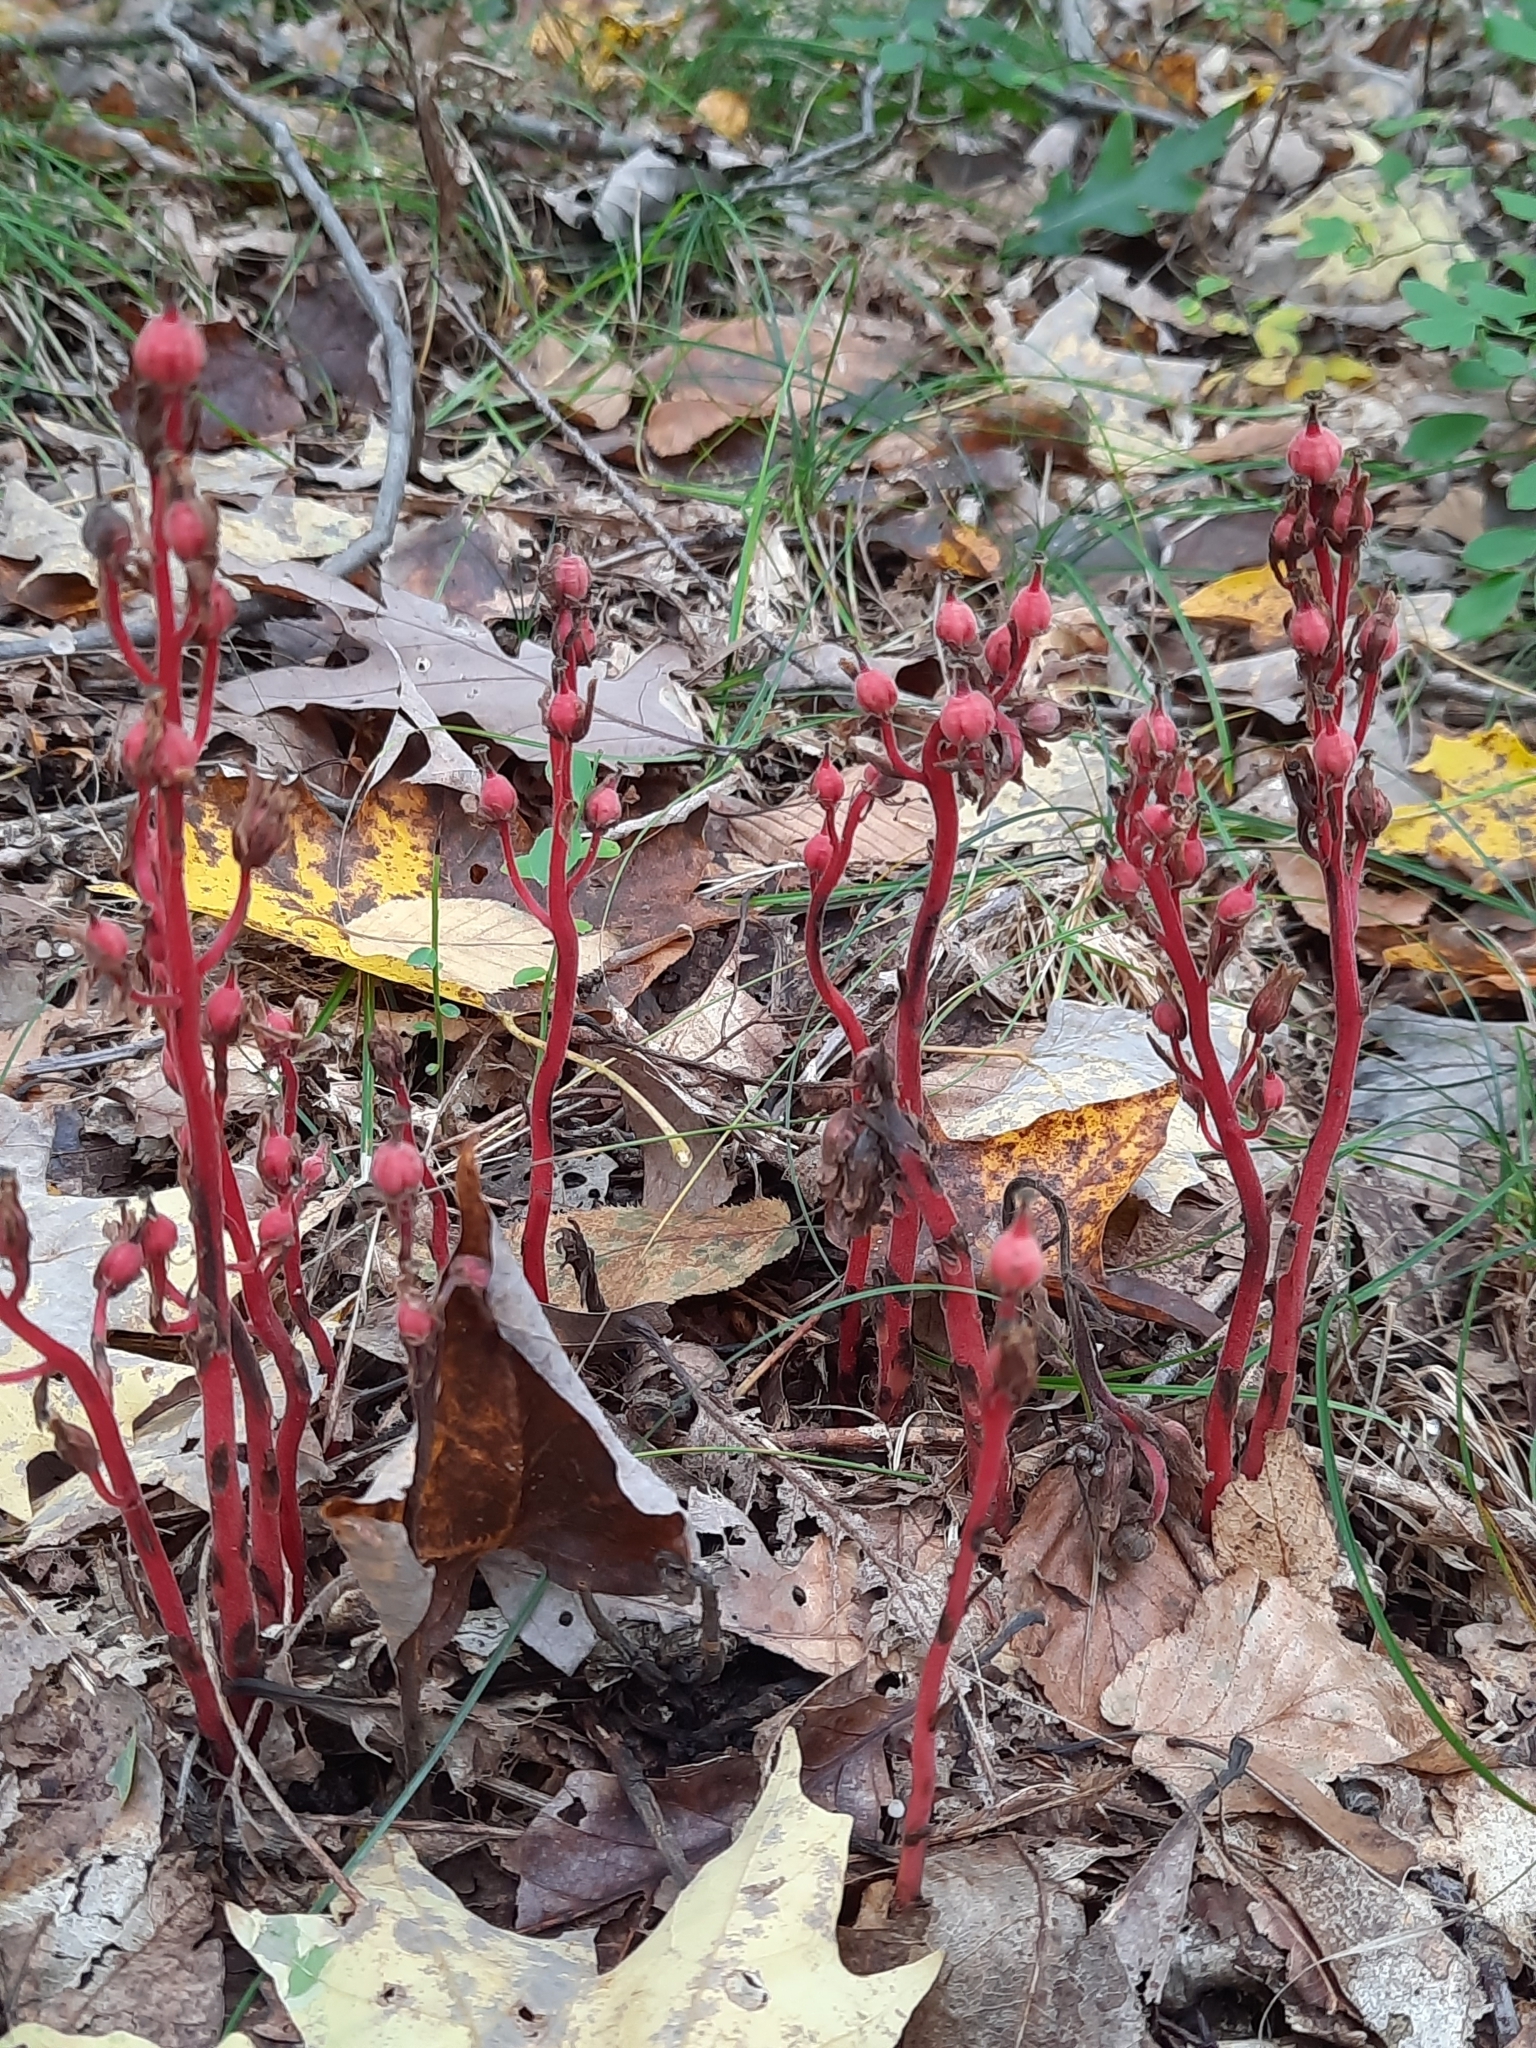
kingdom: Plantae
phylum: Tracheophyta
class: Magnoliopsida
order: Ericales
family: Ericaceae
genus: Hypopitys
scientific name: Hypopitys monotropa
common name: Yellow bird's-nest
